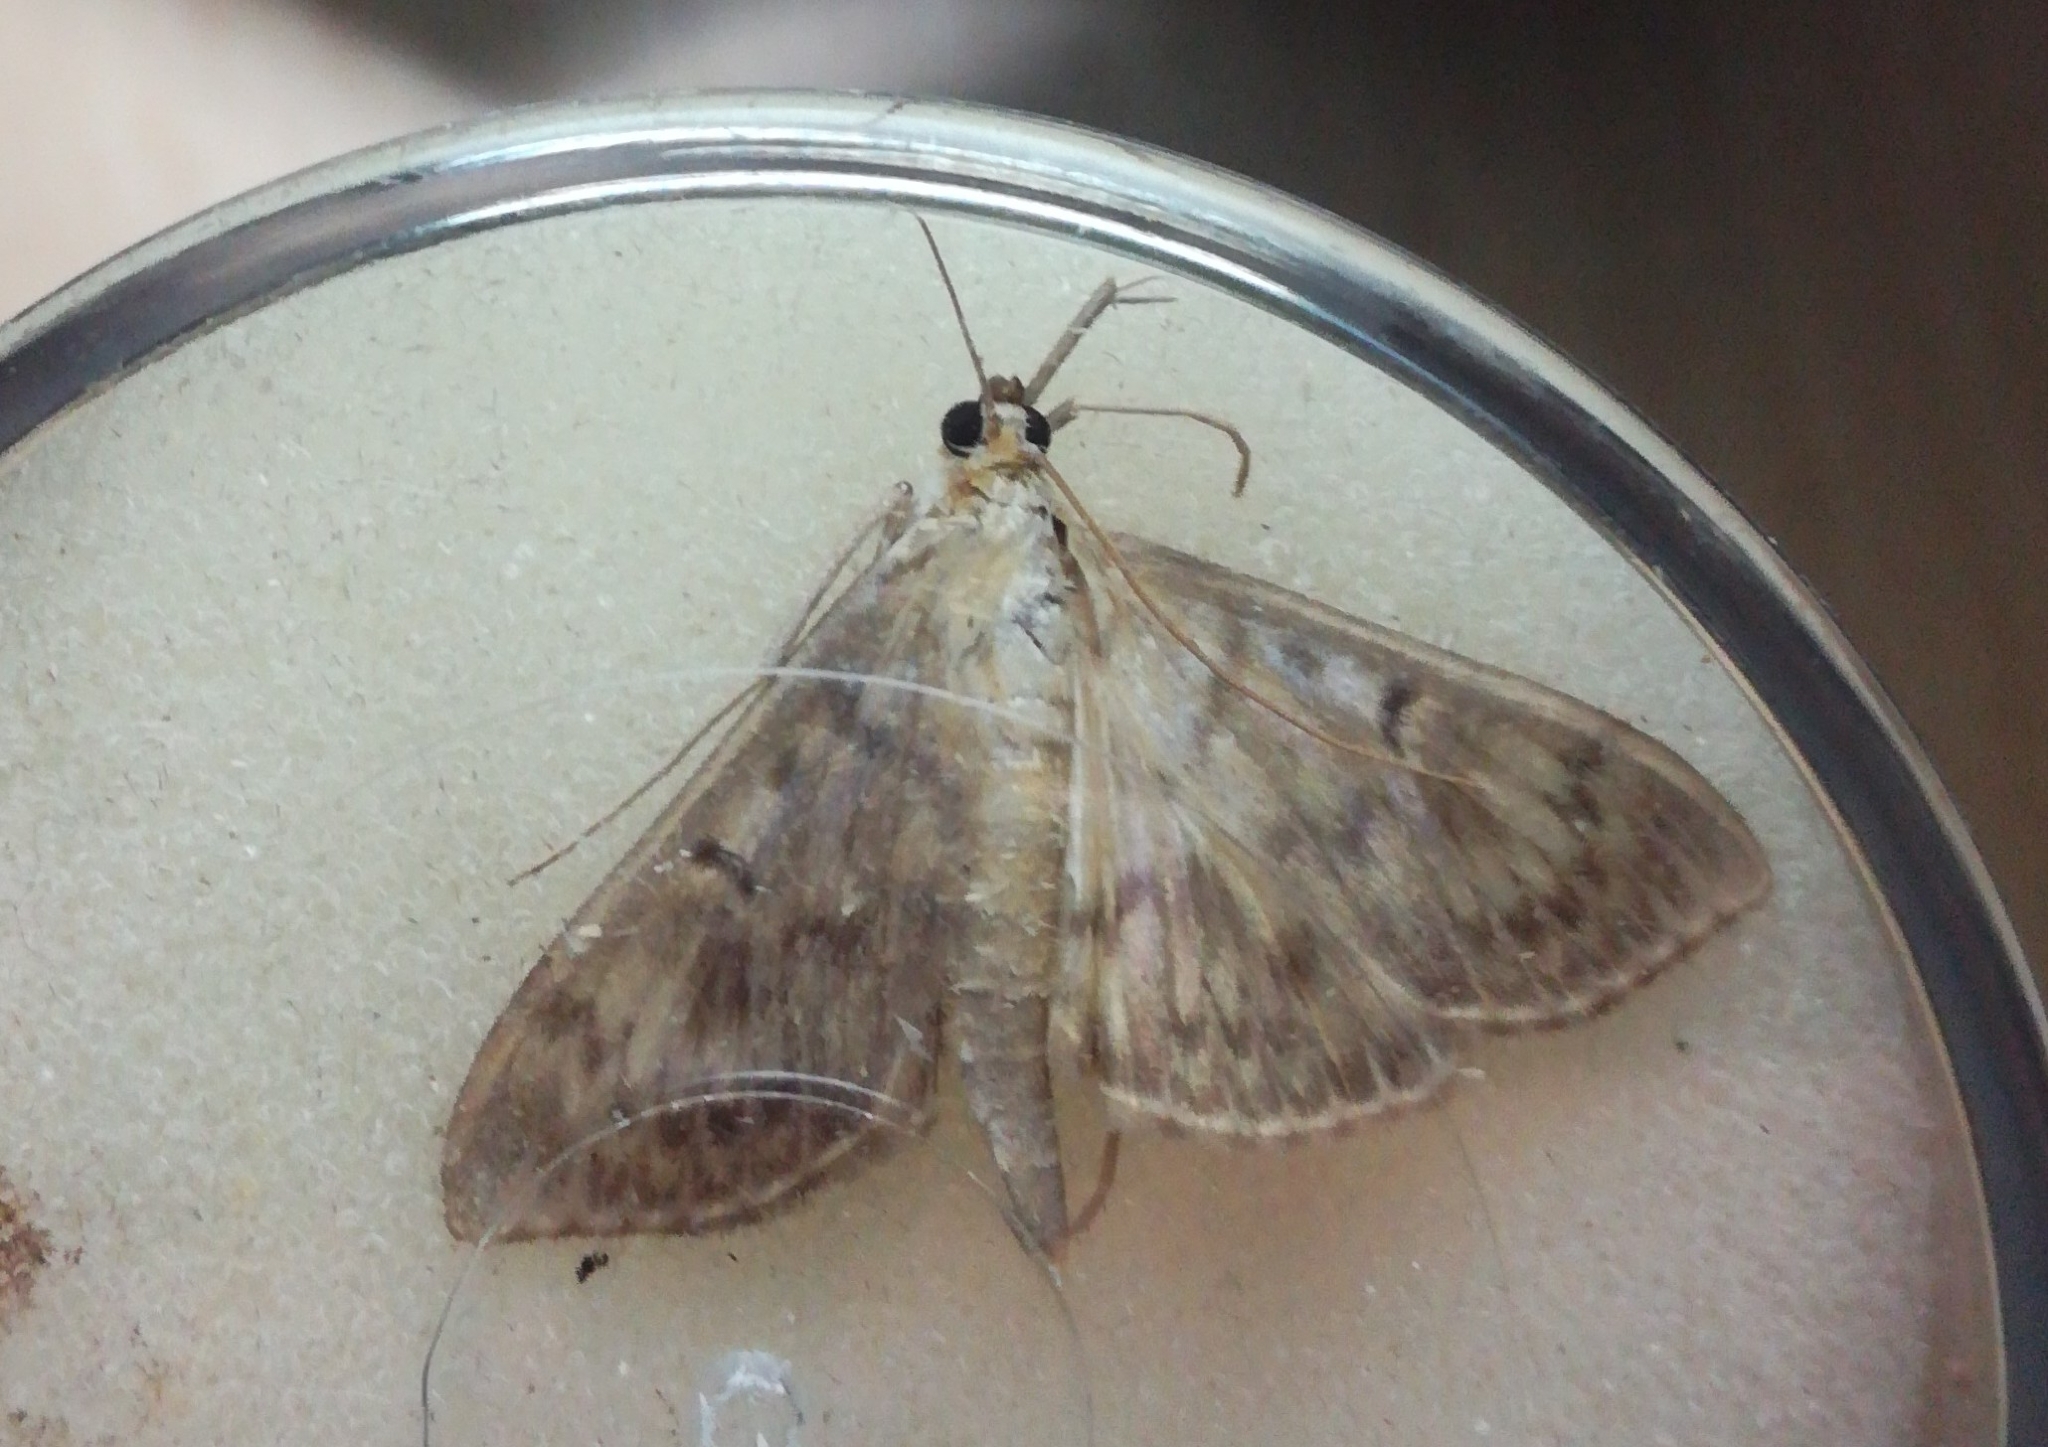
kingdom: Animalia
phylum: Arthropoda
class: Insecta
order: Lepidoptera
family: Crambidae
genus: Patania
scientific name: Patania ruralis
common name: Mother of pearl
